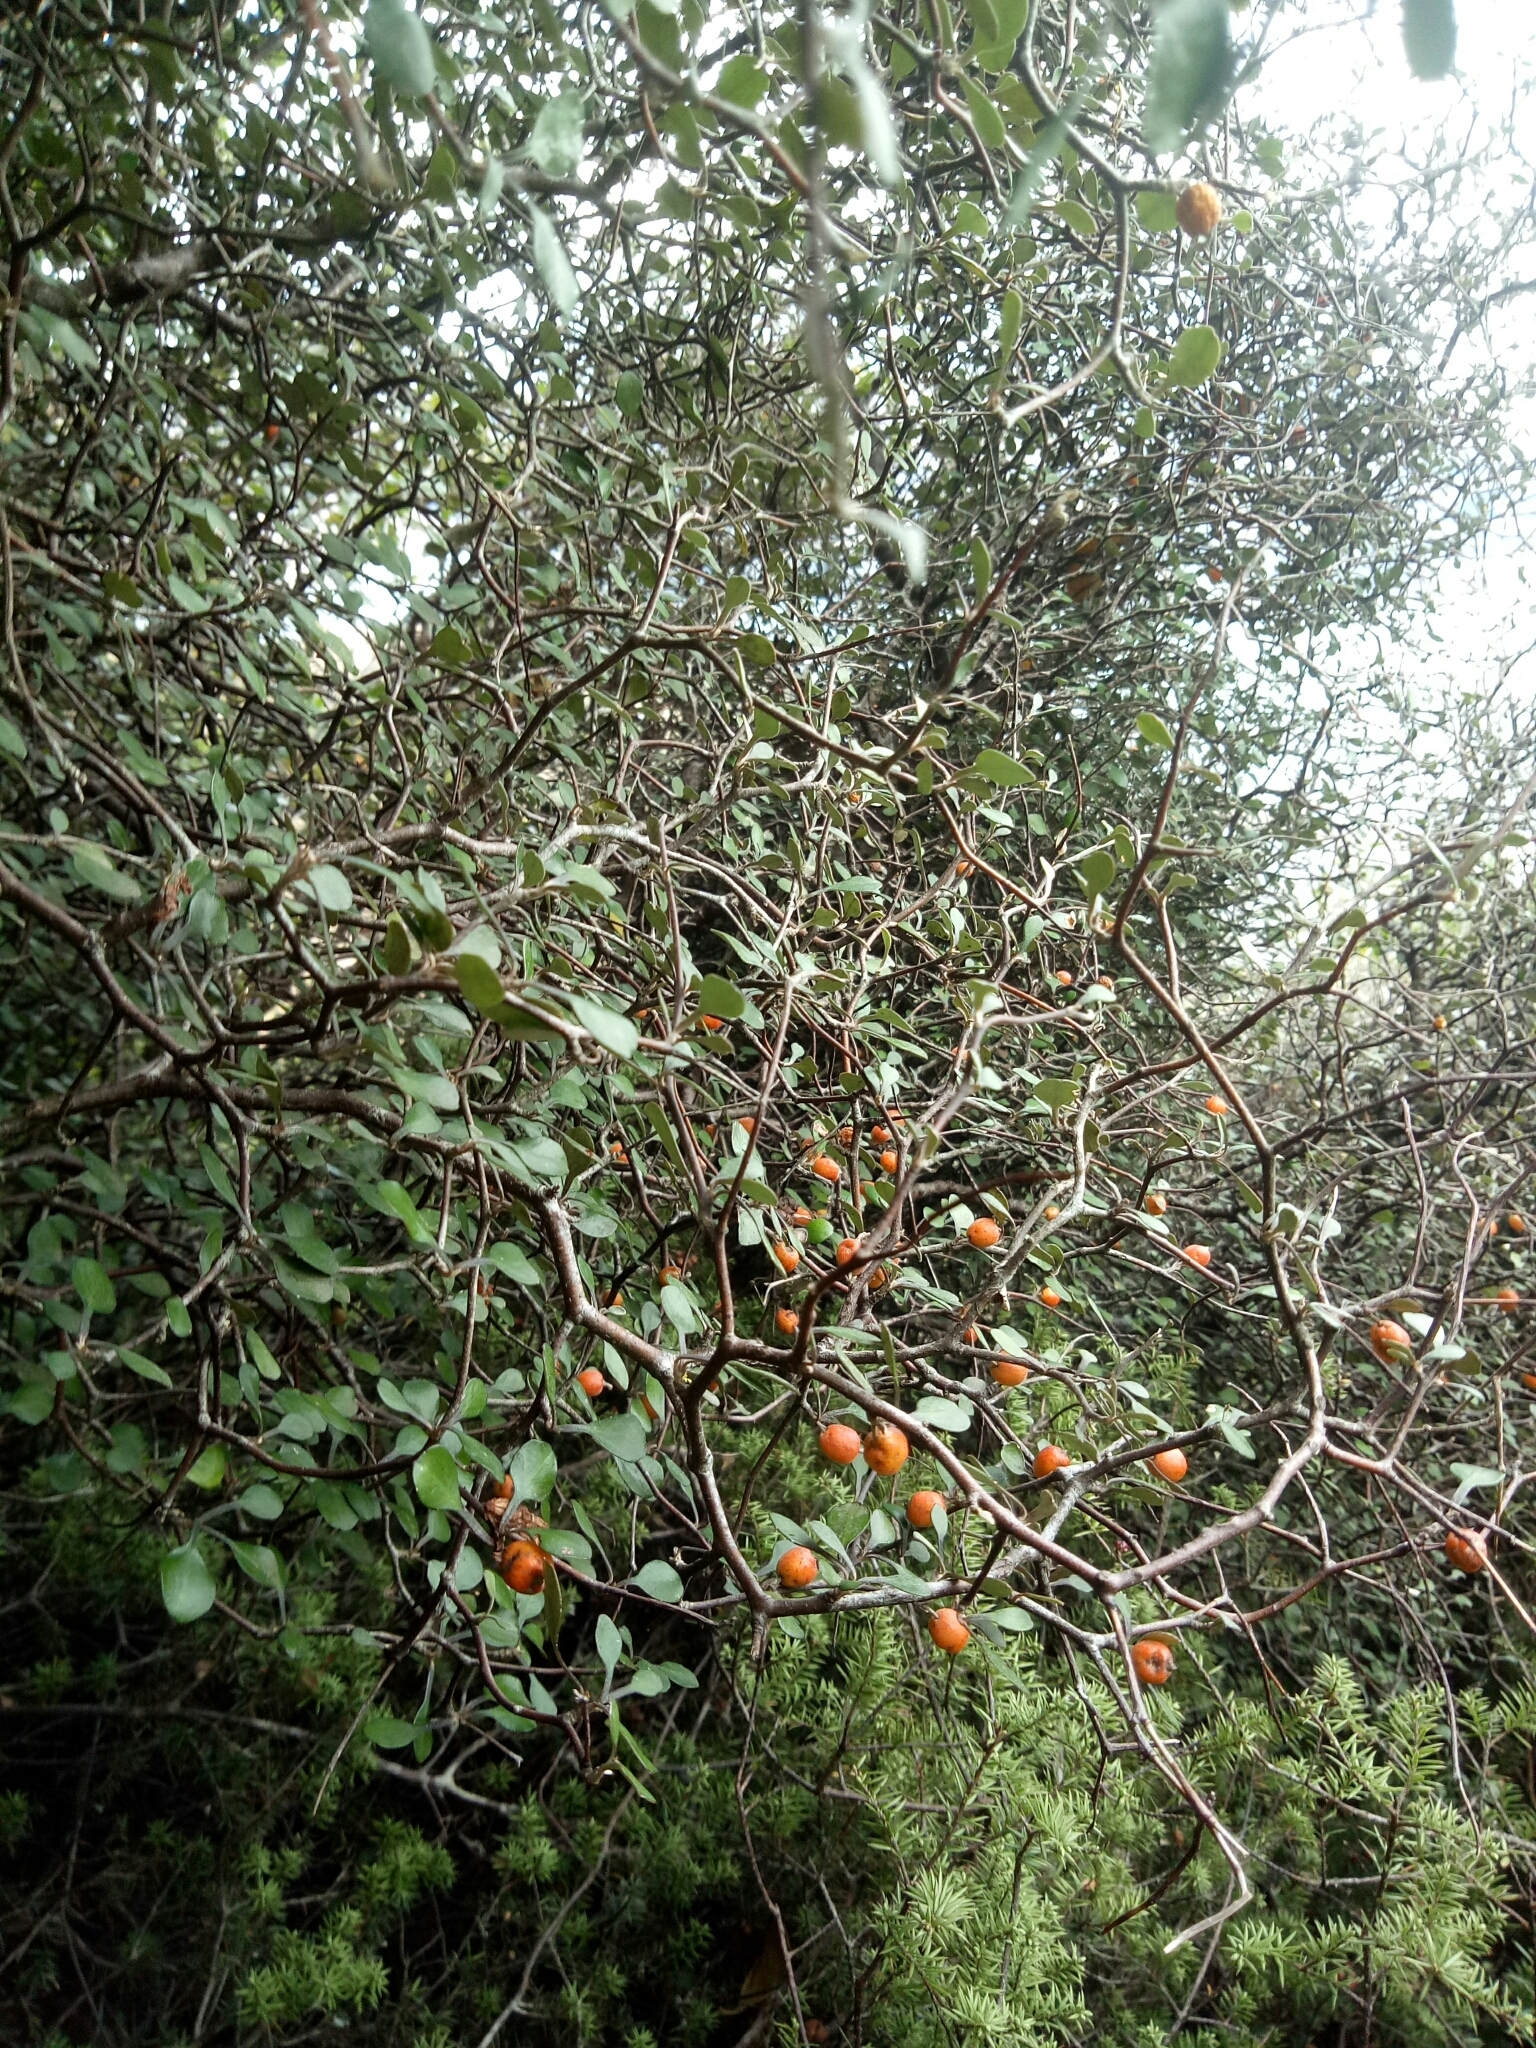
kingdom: Plantae
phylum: Tracheophyta
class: Magnoliopsida
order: Asterales
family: Argophyllaceae
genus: Corokia
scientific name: Corokia cotoneaster
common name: Wire nettingbush
